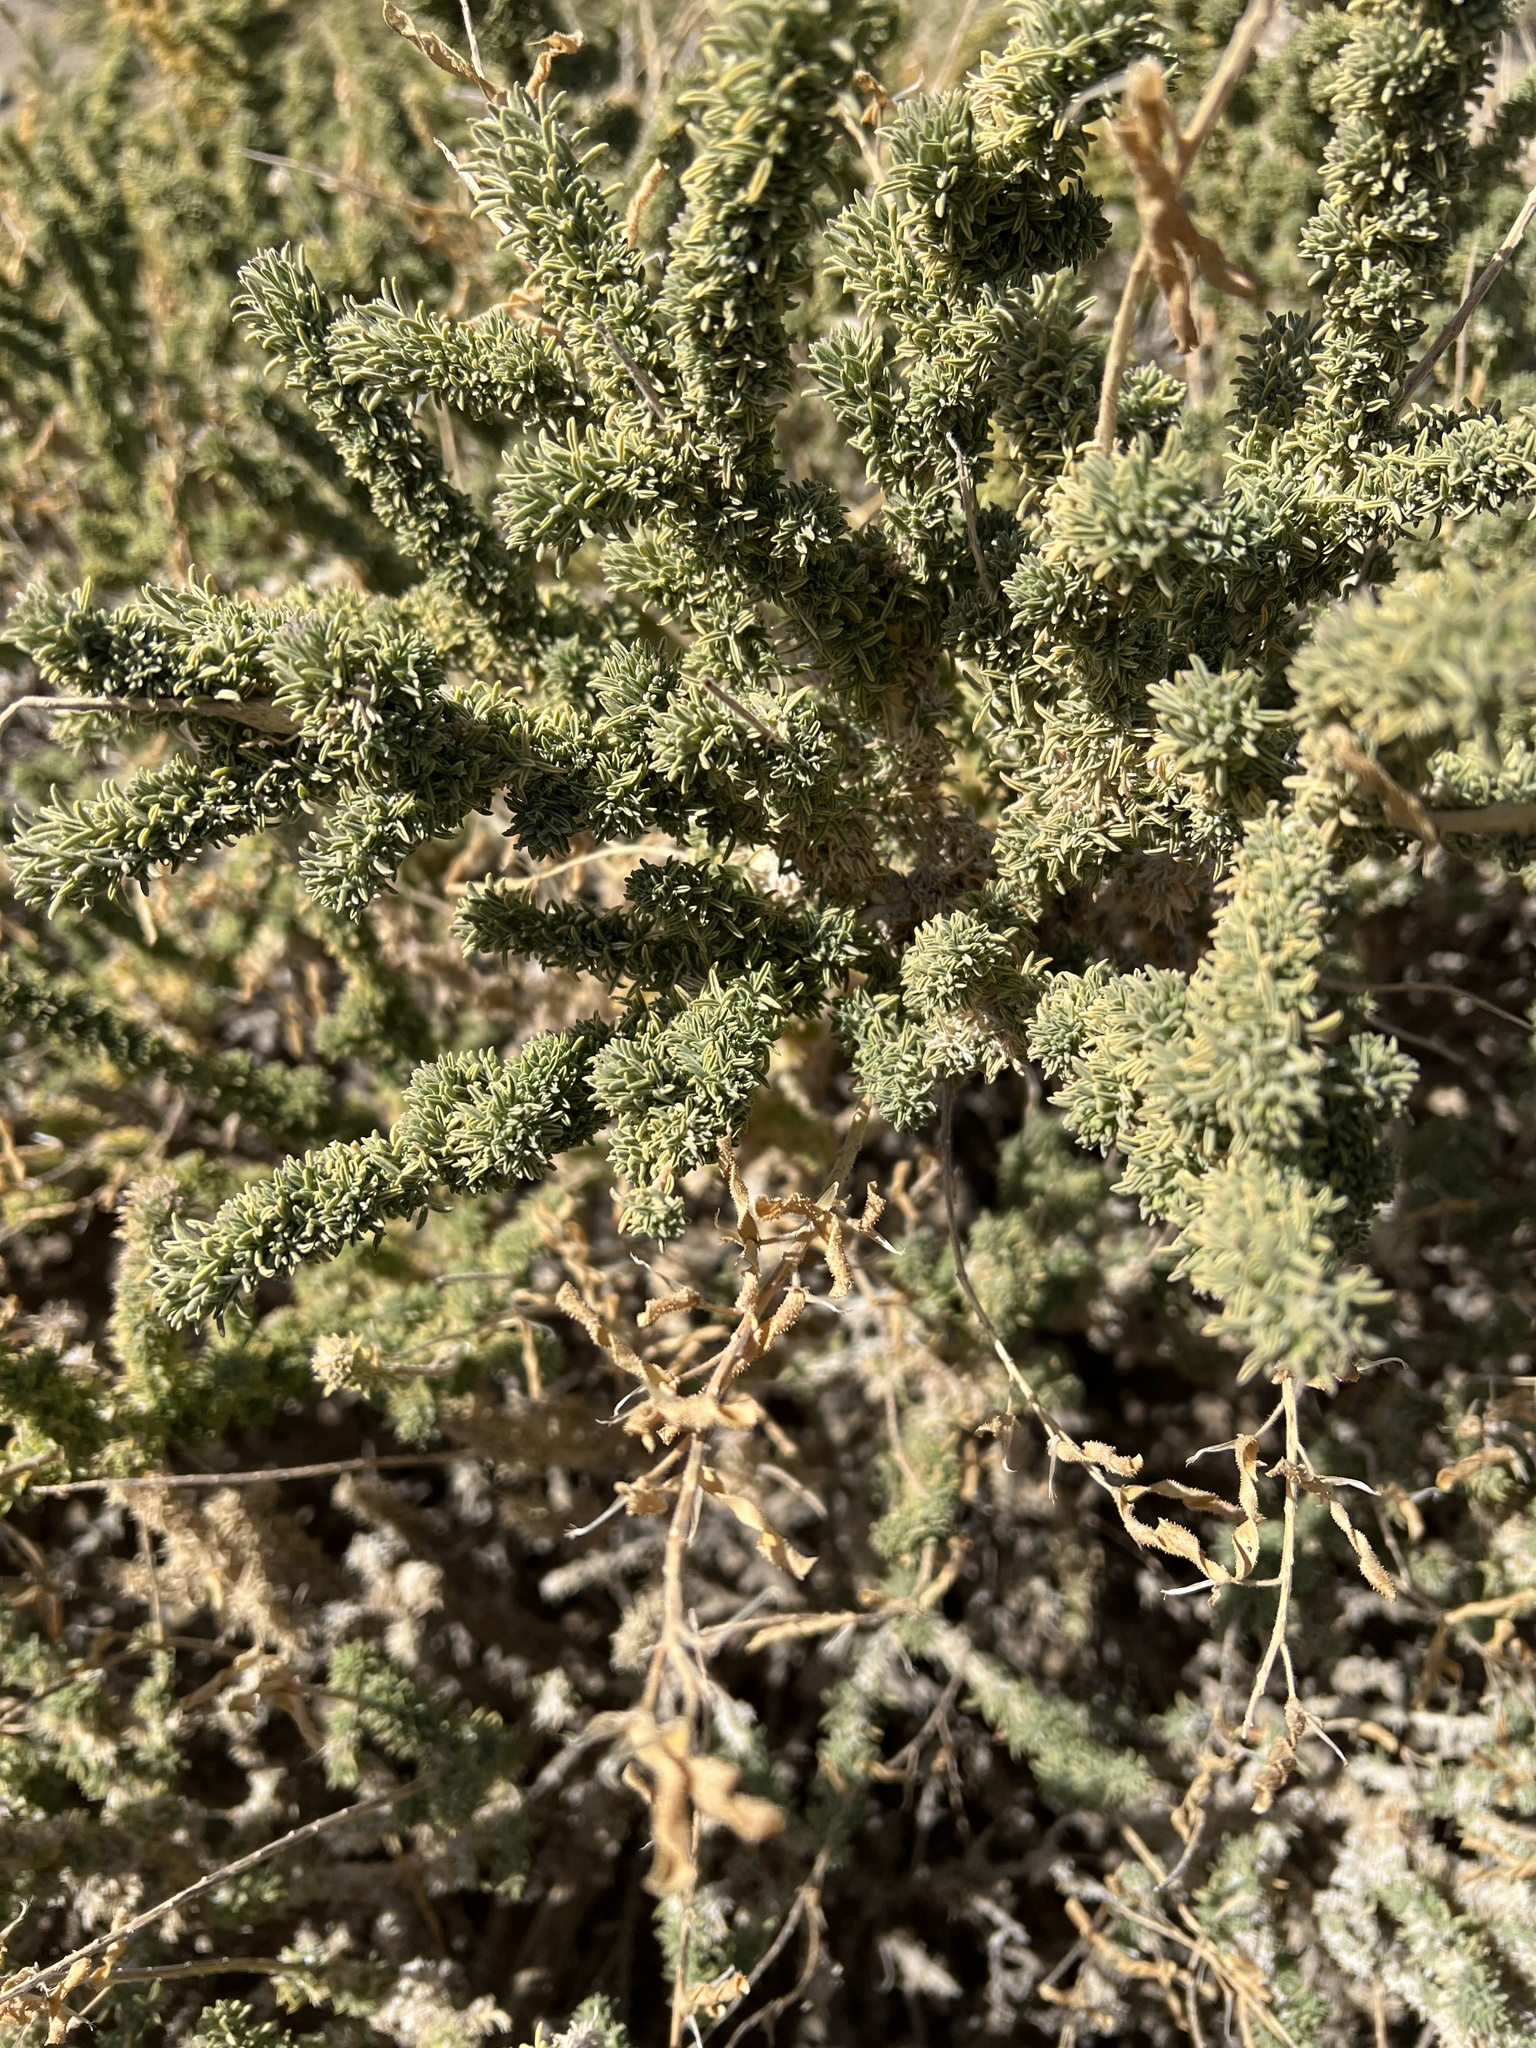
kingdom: Plantae
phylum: Tracheophyta
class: Magnoliopsida
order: Fabales
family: Fabaceae
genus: Adenocarpus
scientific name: Adenocarpus viscosus
